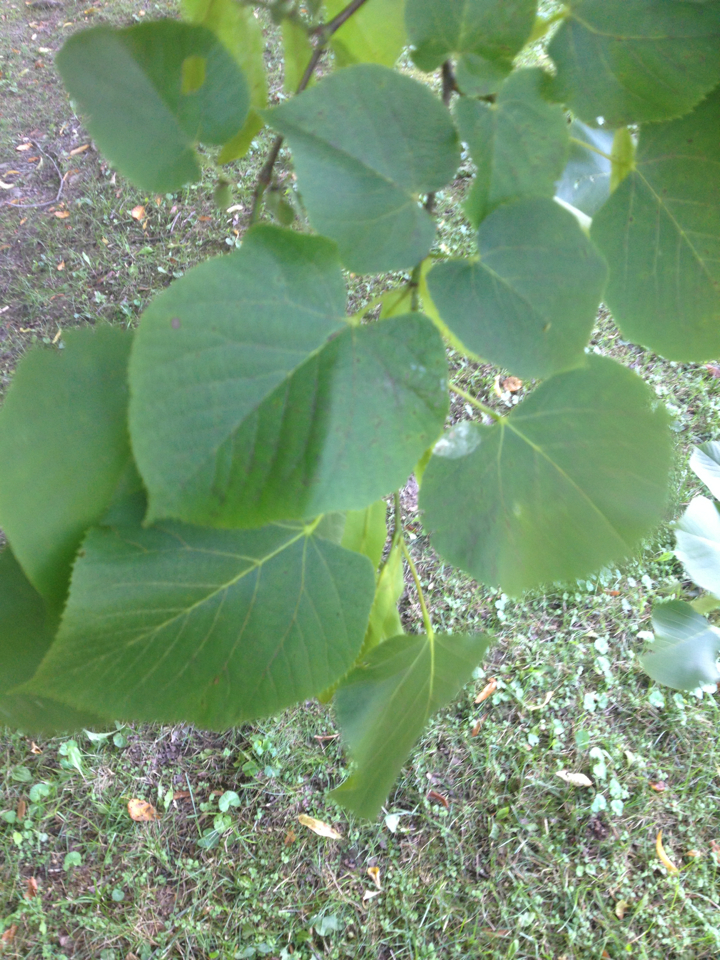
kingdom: Plantae
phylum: Tracheophyta
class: Magnoliopsida
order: Malvales
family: Malvaceae
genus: Tilia
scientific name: Tilia americana
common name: Basswood
